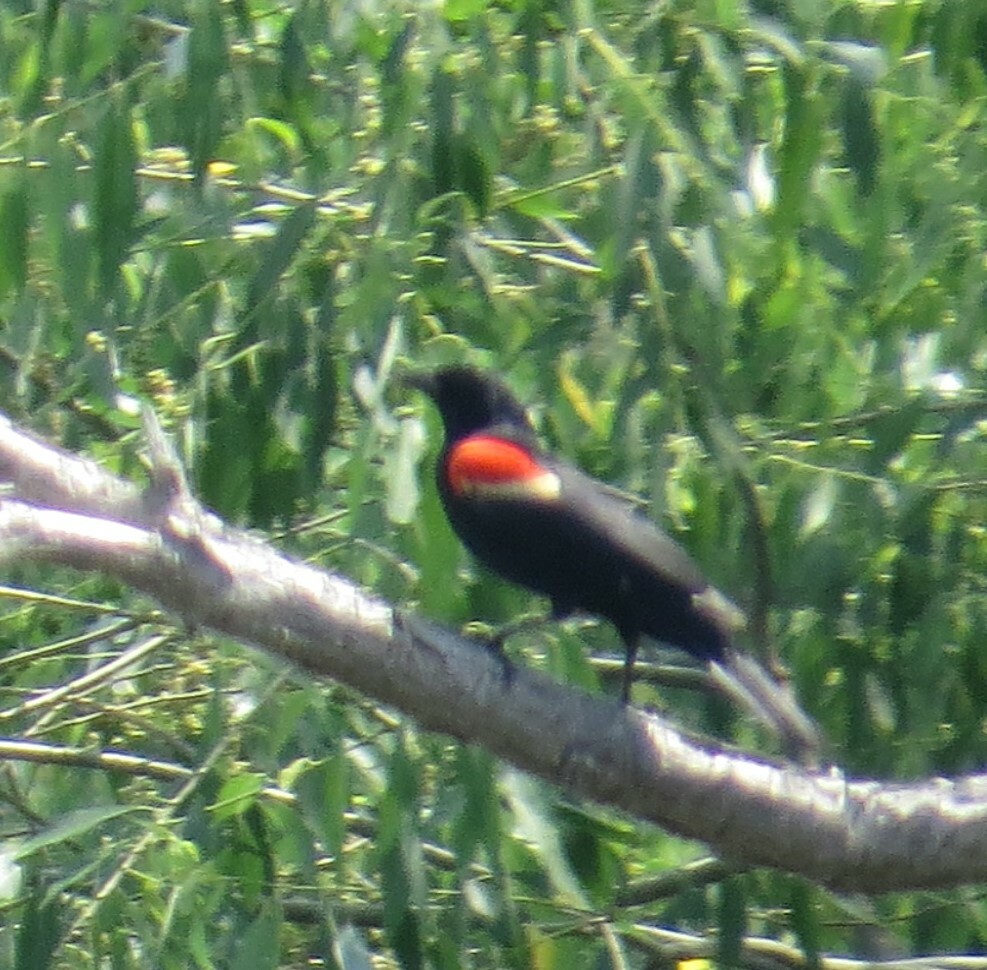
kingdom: Animalia
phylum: Chordata
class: Aves
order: Passeriformes
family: Icteridae
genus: Agelaius
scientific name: Agelaius phoeniceus
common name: Red-winged blackbird
